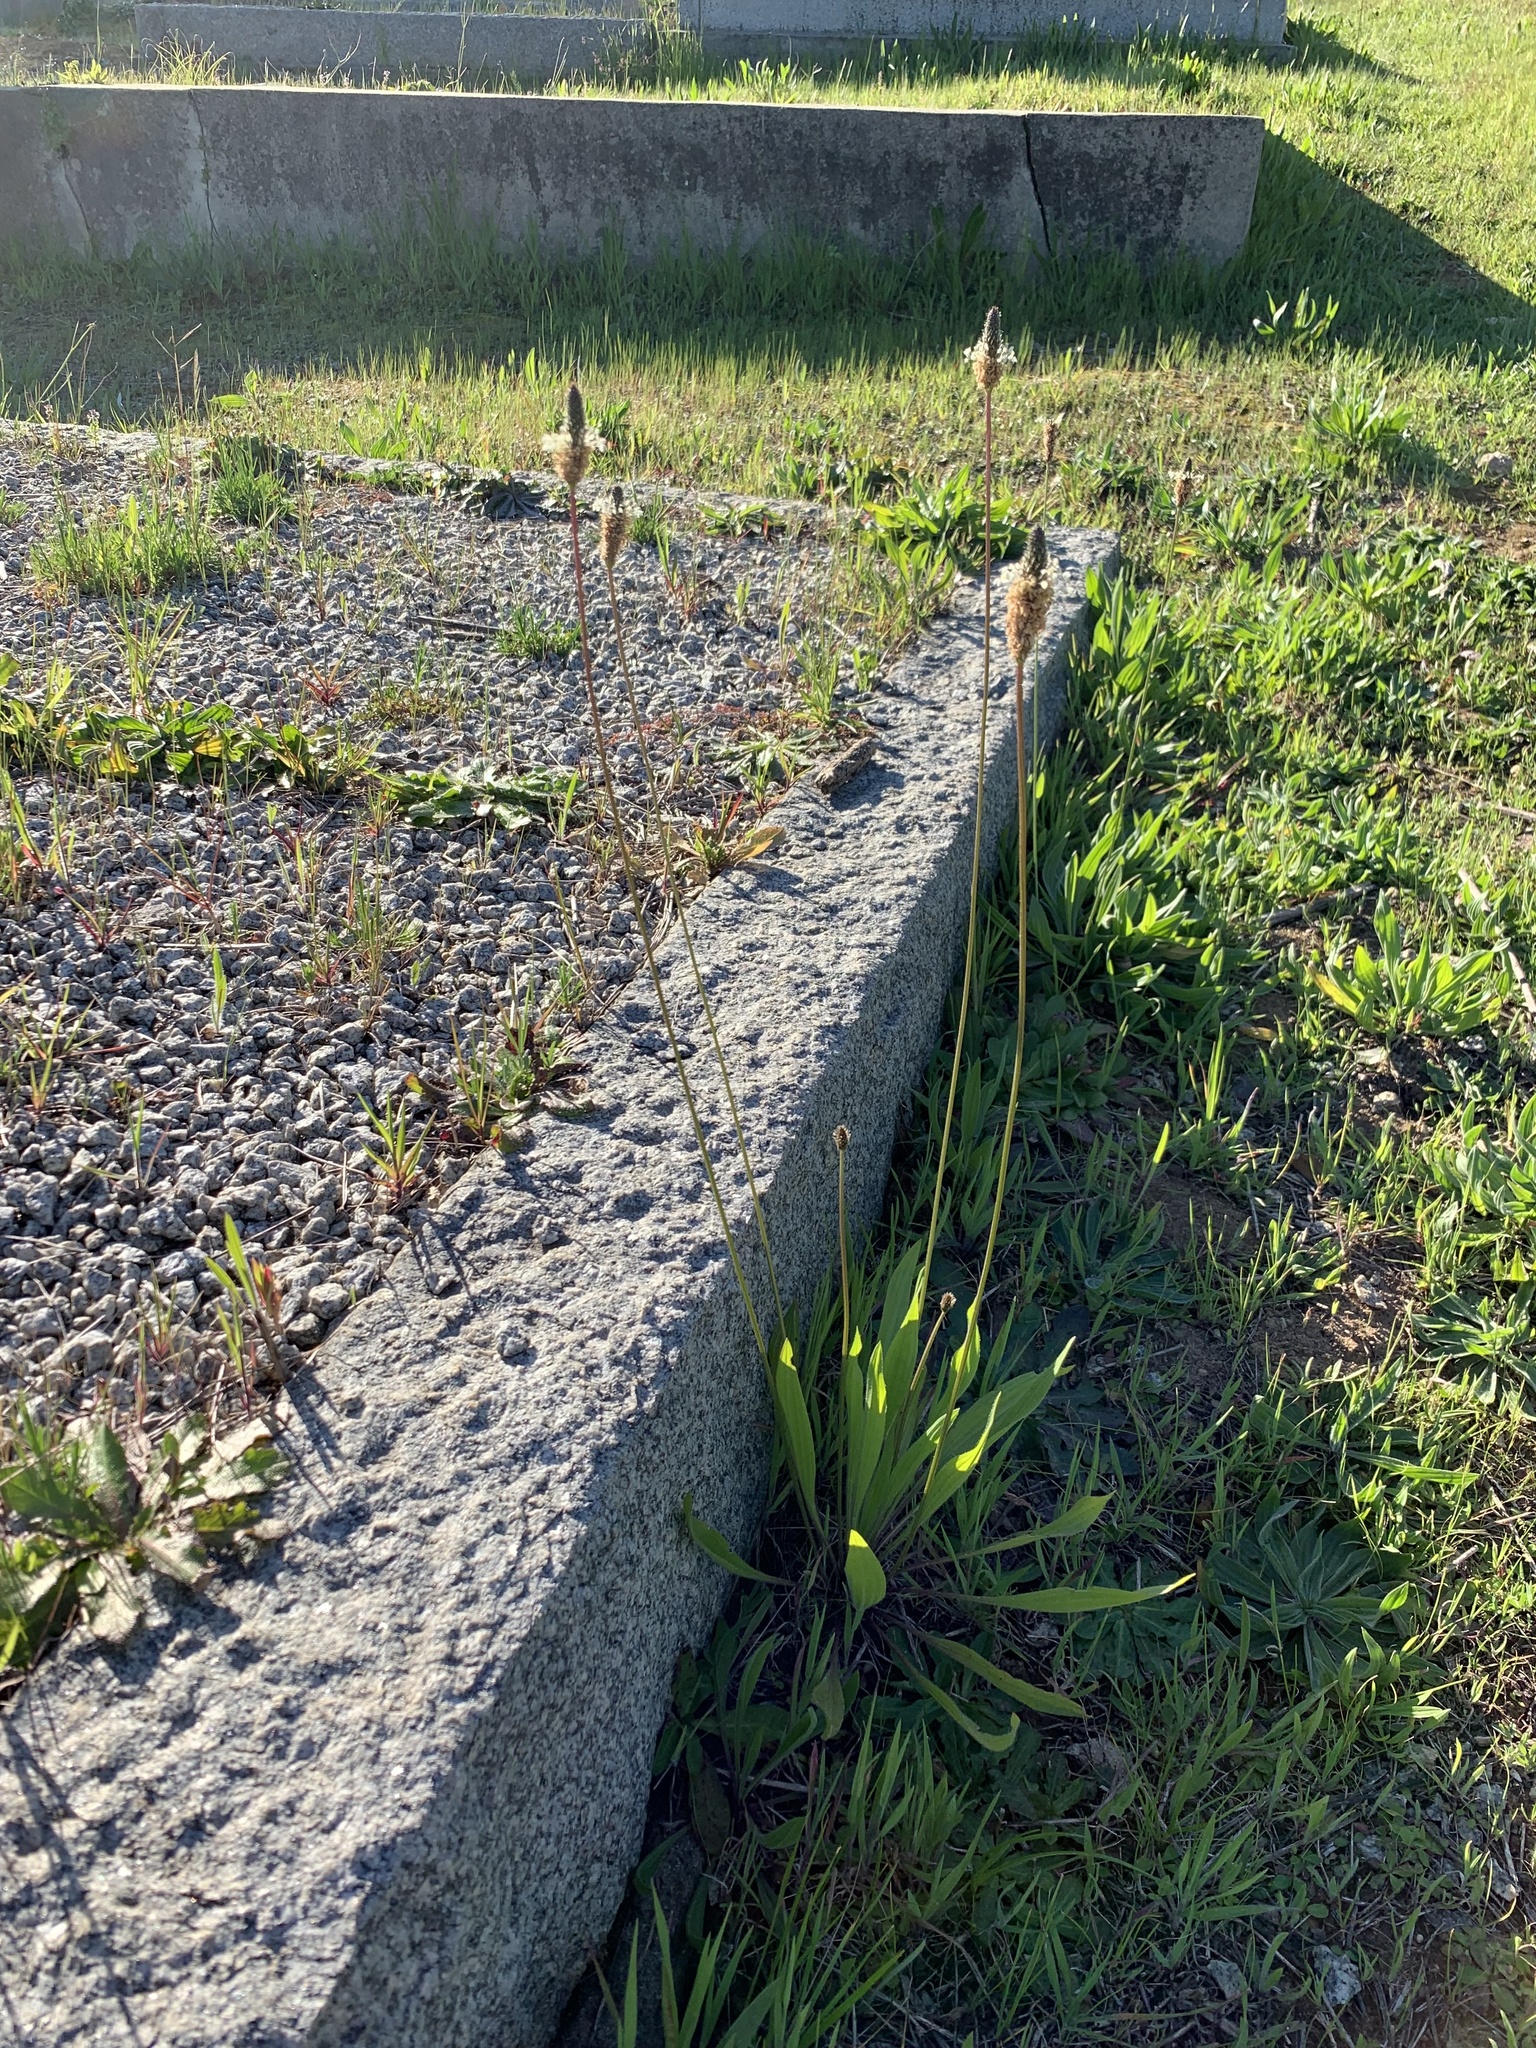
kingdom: Plantae
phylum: Tracheophyta
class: Magnoliopsida
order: Lamiales
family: Plantaginaceae
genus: Plantago
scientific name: Plantago lanceolata
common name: Ribwort plantain
